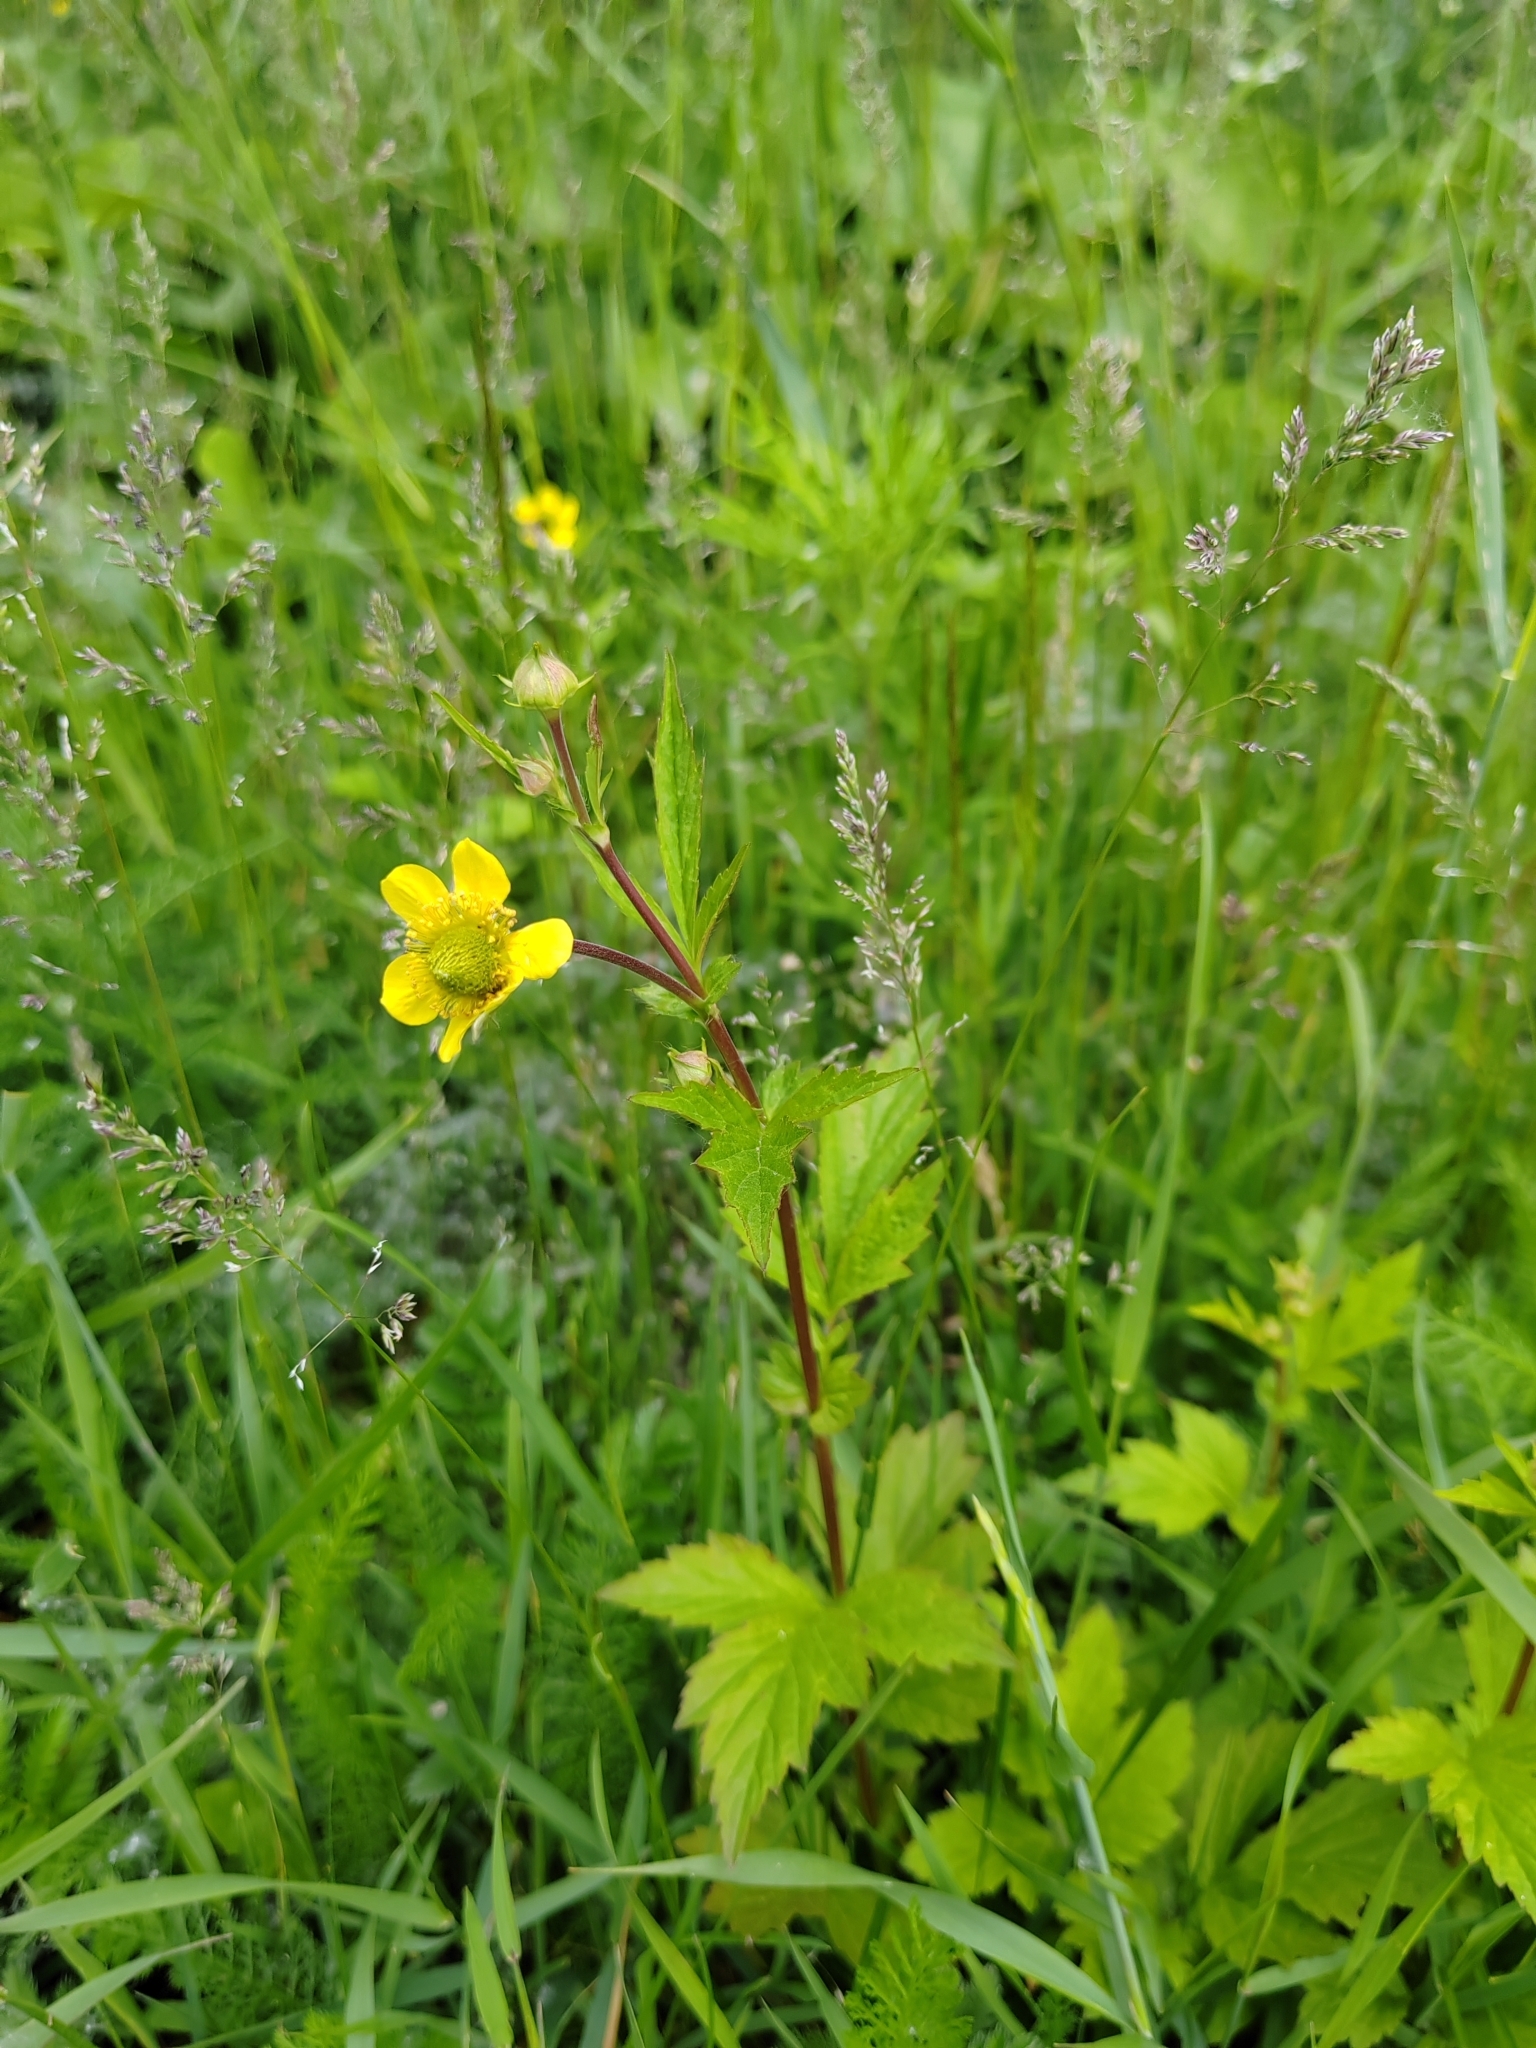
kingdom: Plantae
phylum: Tracheophyta
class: Magnoliopsida
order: Rosales
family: Rosaceae
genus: Geum
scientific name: Geum aleppicum
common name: Yellow avens
